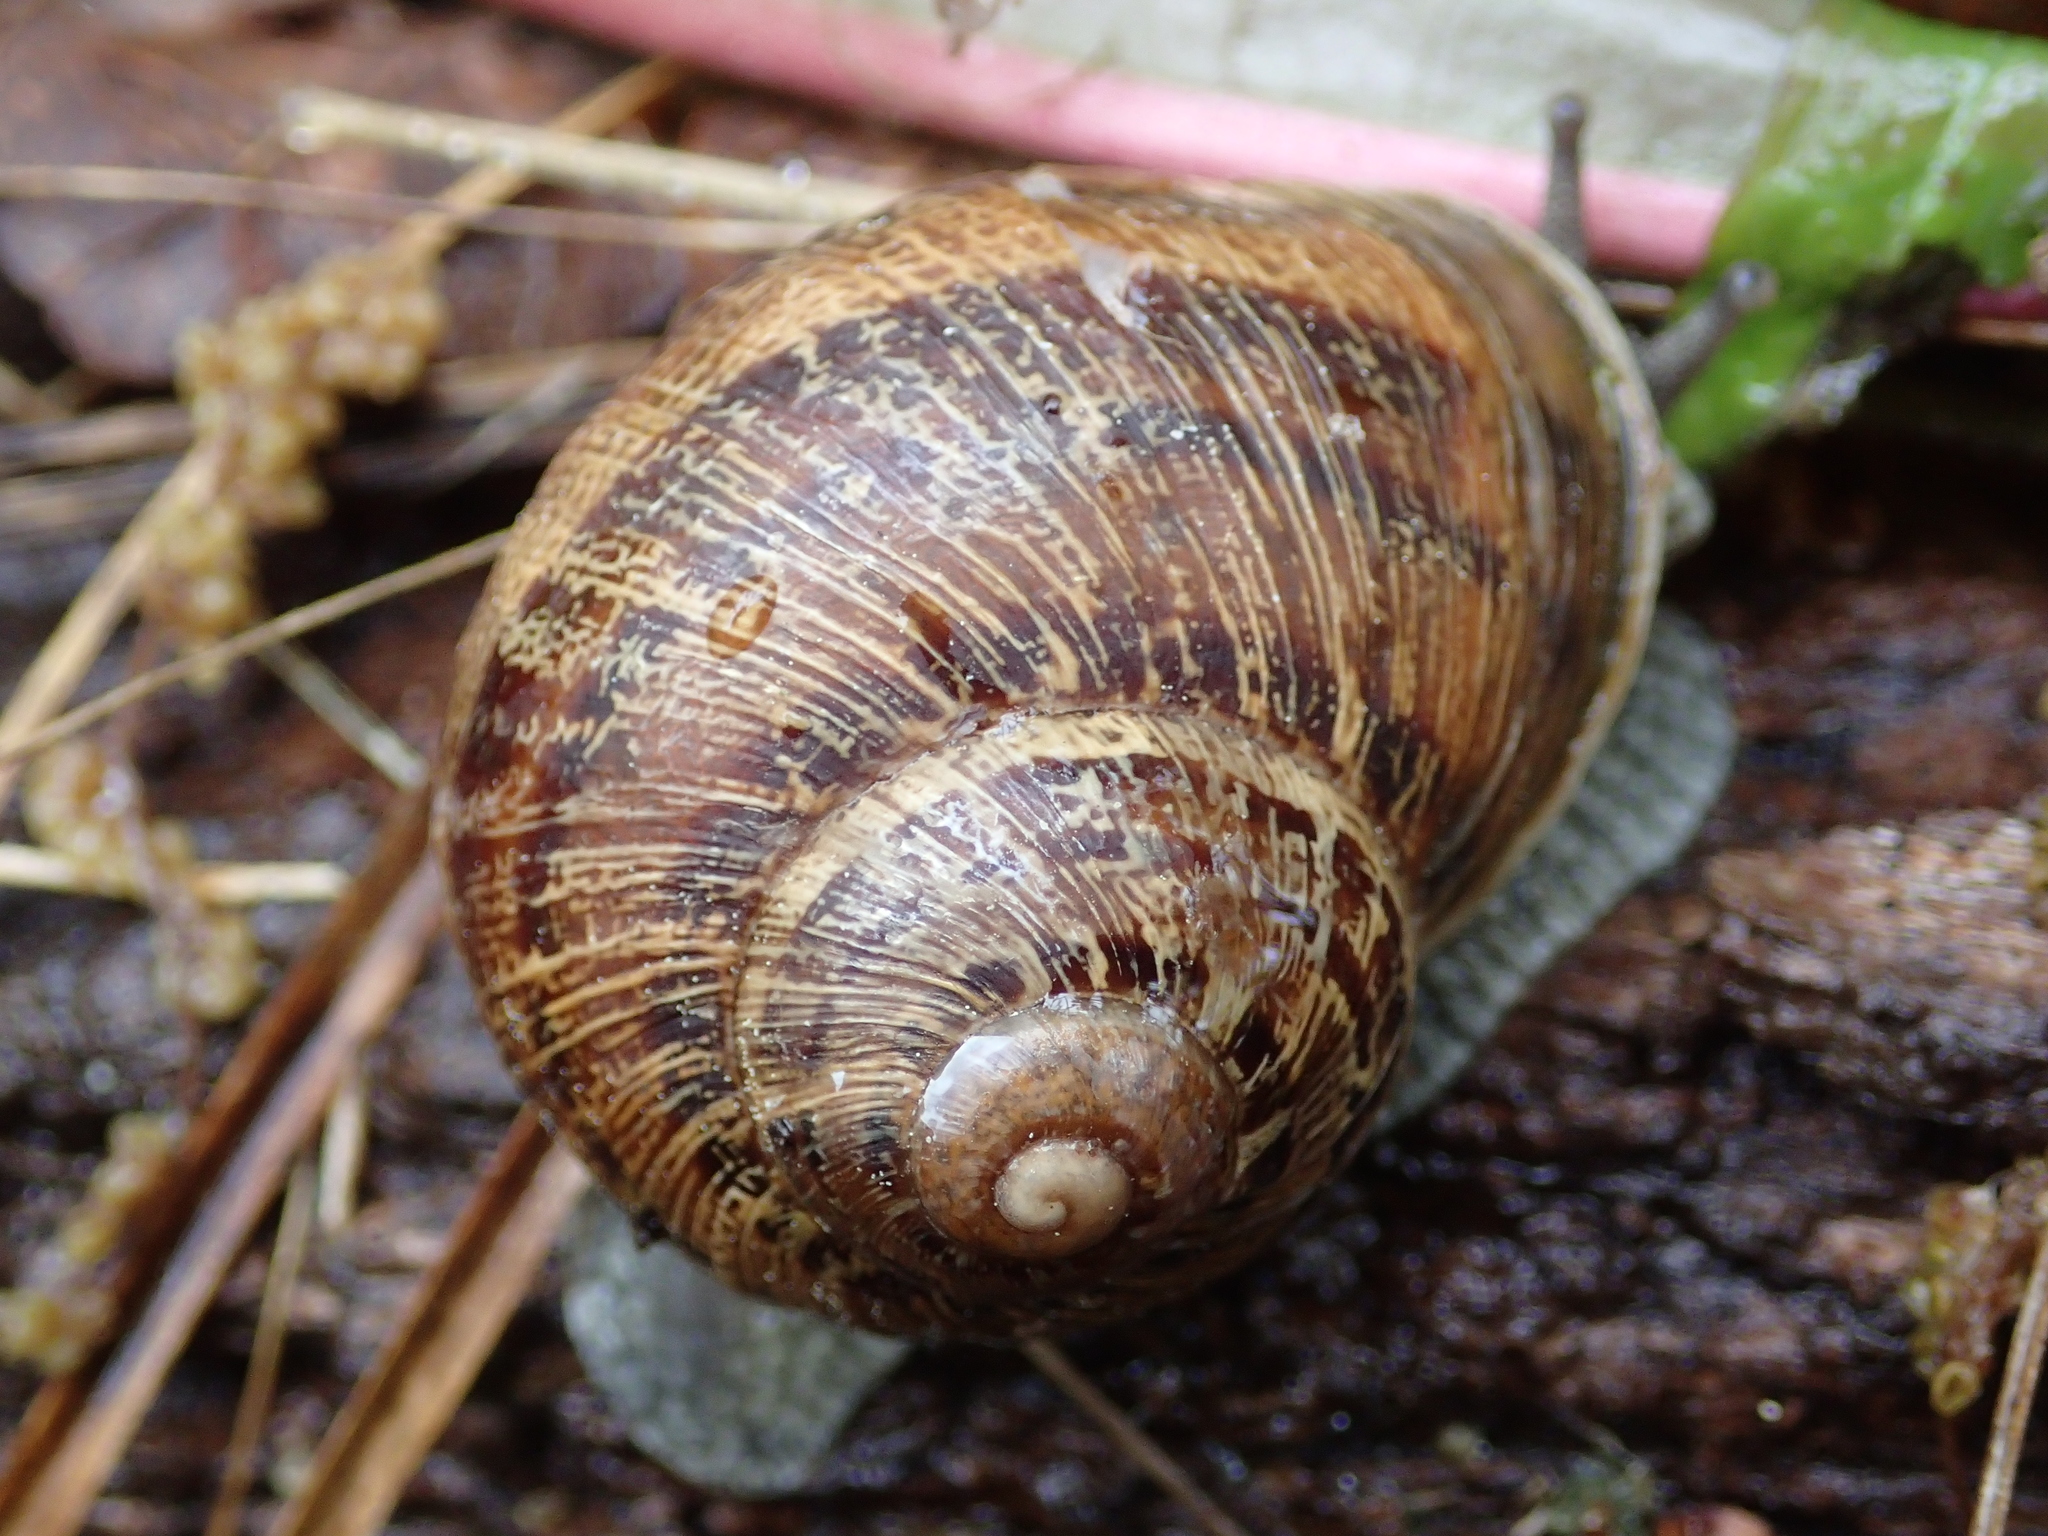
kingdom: Animalia
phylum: Mollusca
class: Gastropoda
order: Stylommatophora
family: Helicidae
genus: Cornu
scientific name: Cornu aspersum
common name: Brown garden snail
